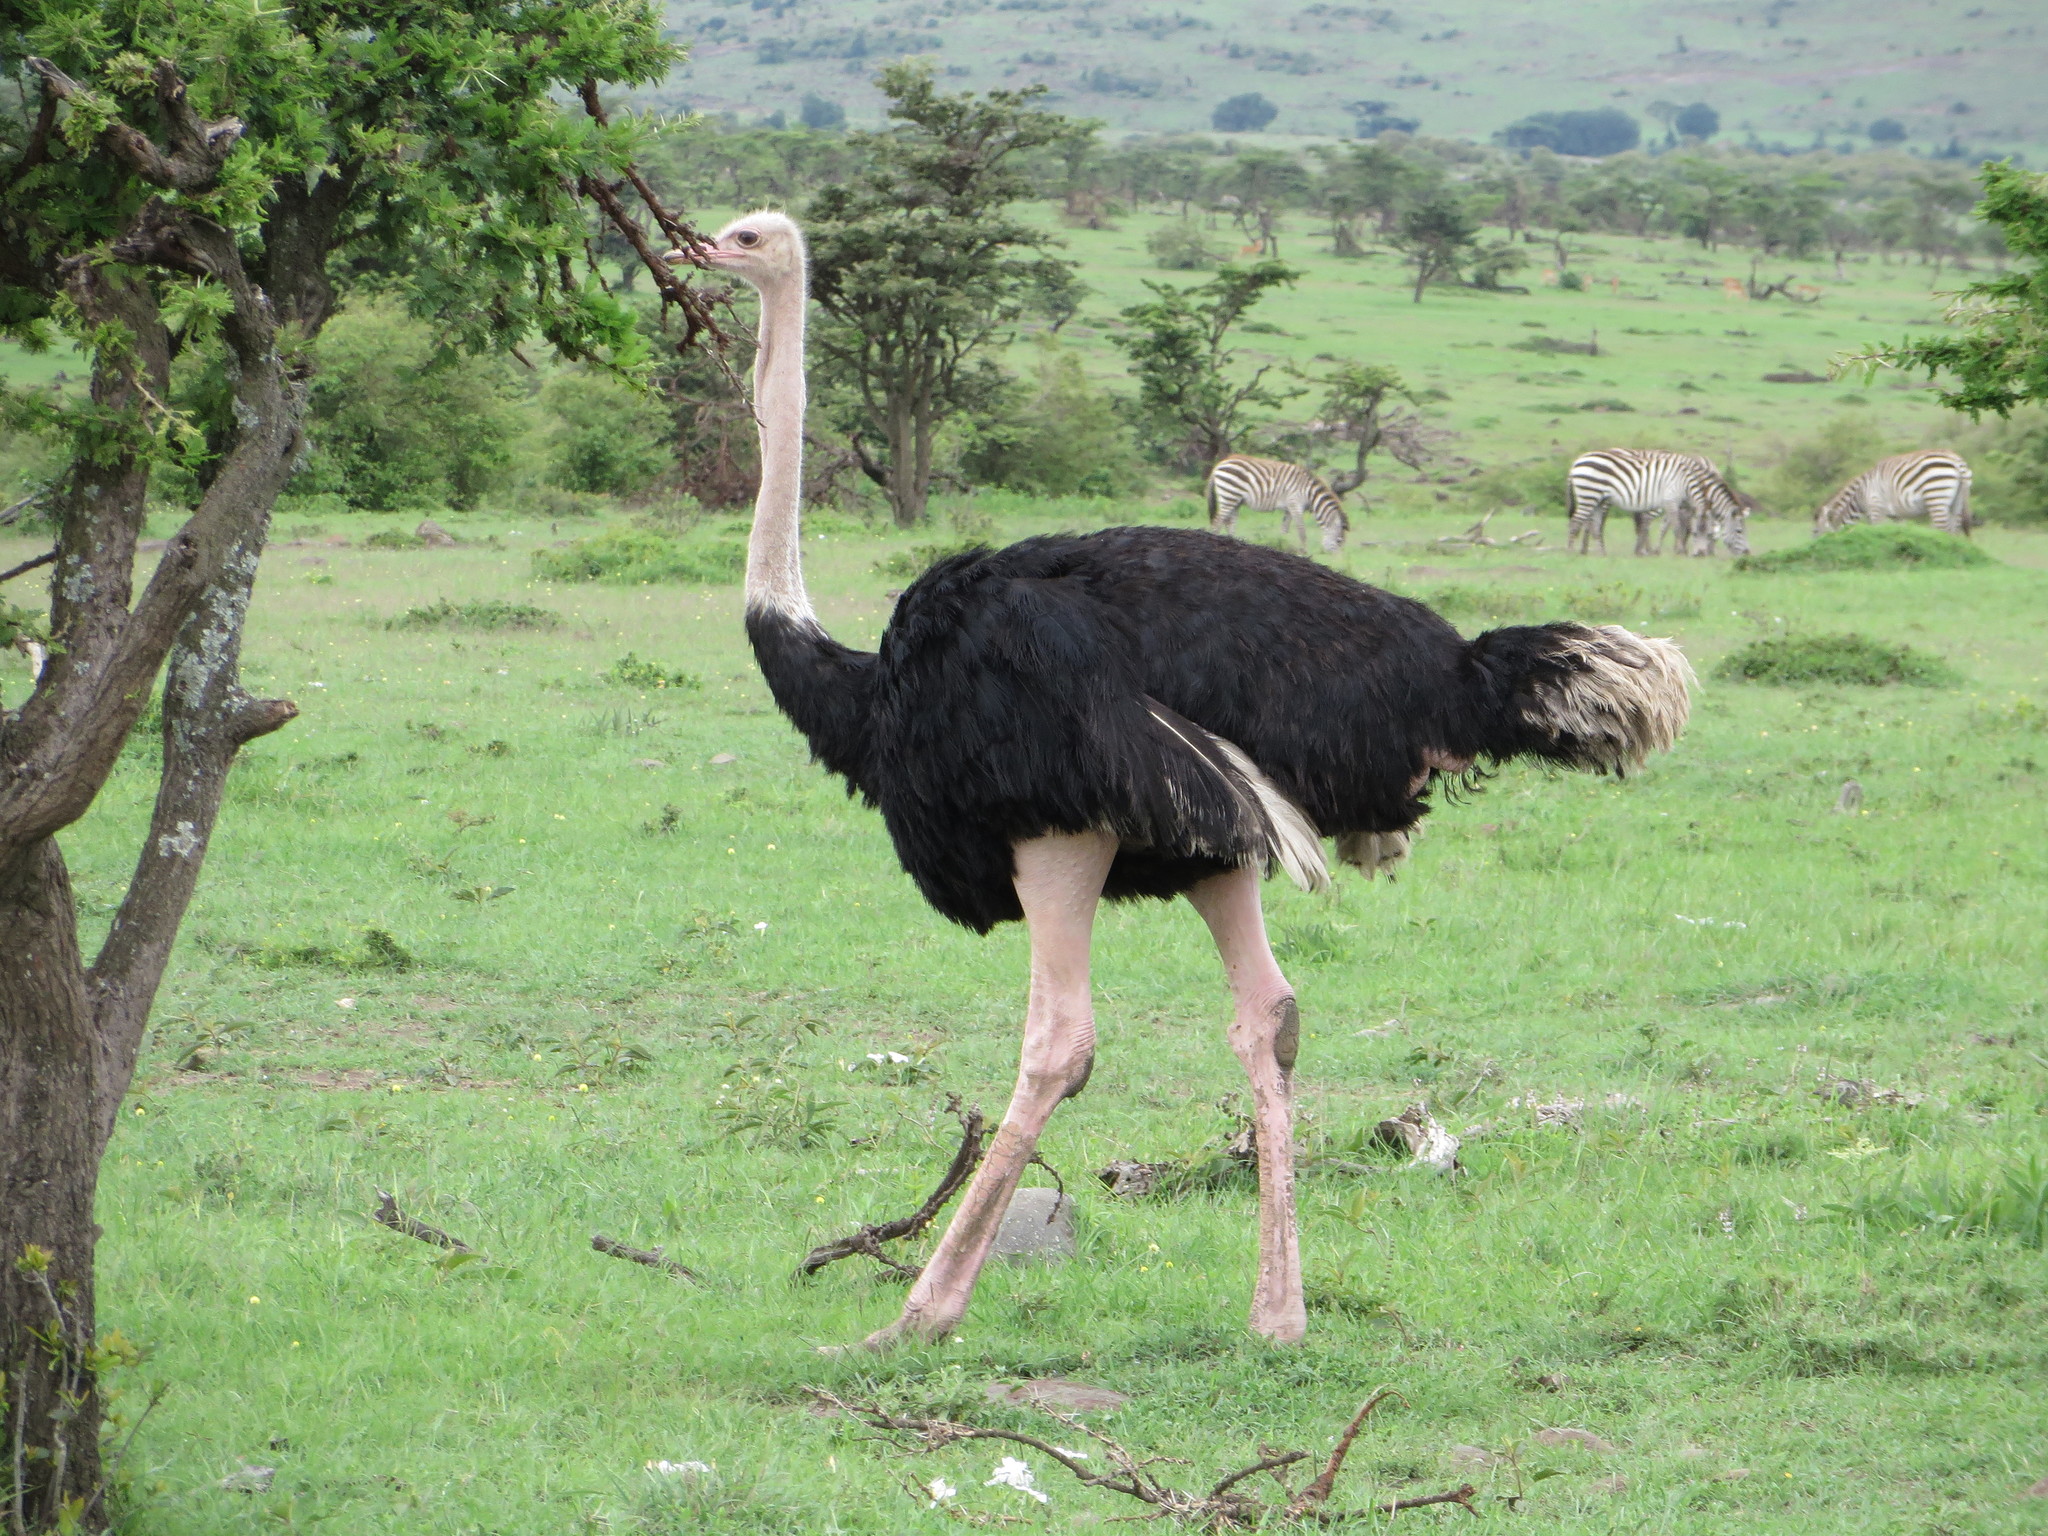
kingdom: Animalia
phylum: Chordata
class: Aves
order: Struthioniformes
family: Struthionidae
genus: Struthio
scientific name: Struthio camelus
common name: Common ostrich
